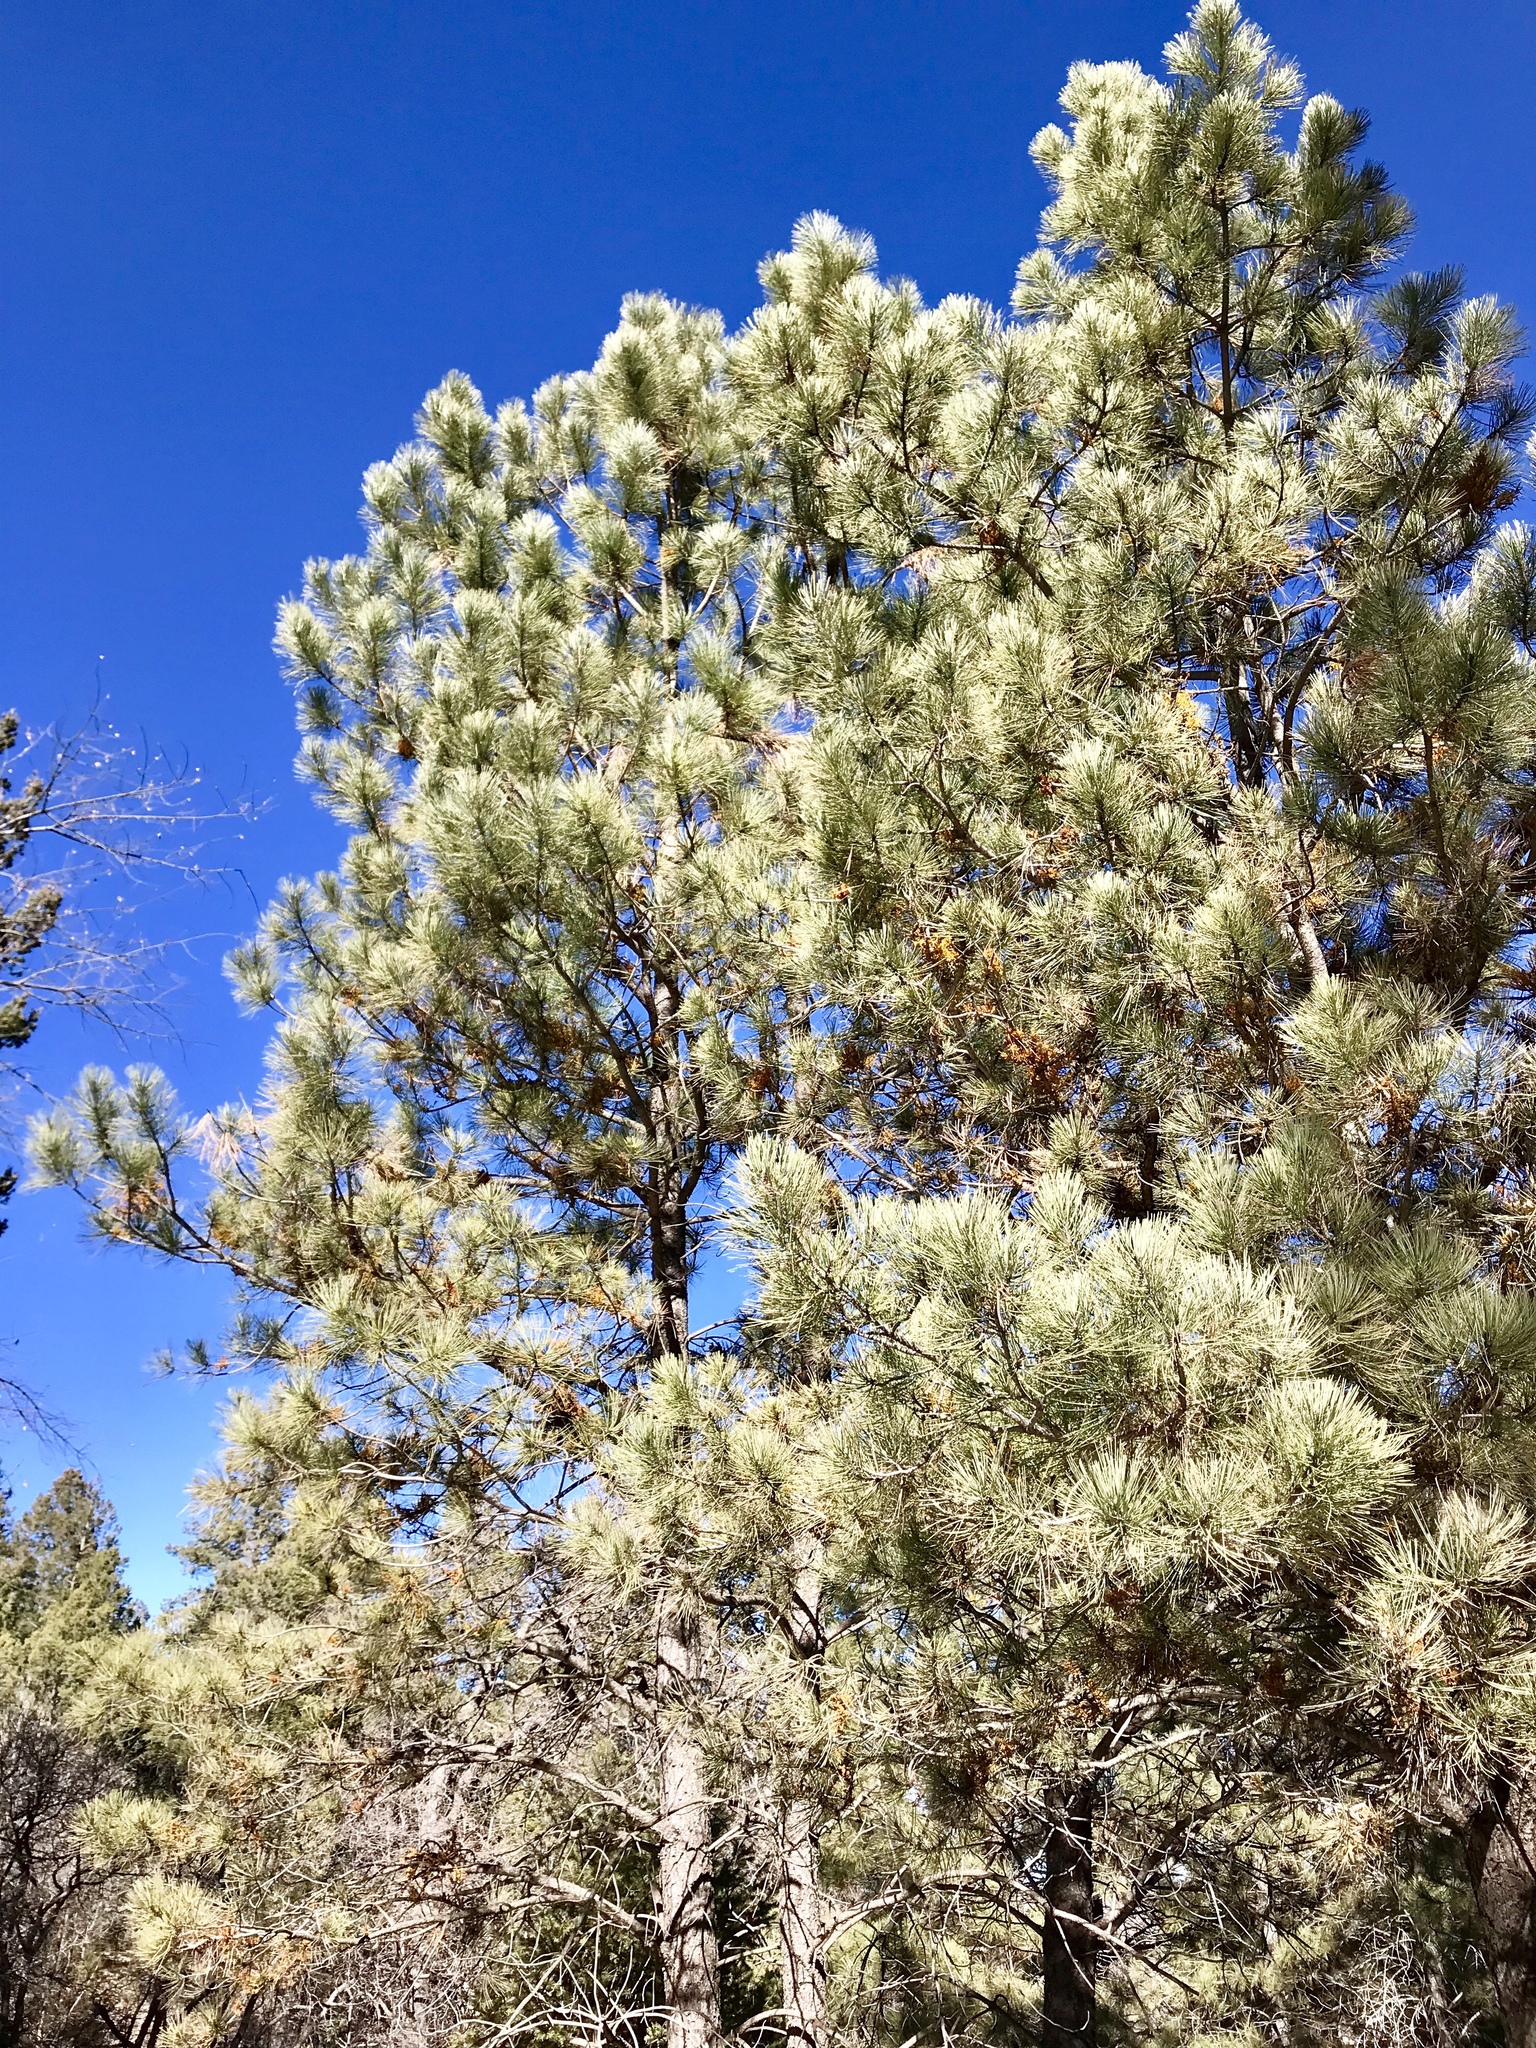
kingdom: Plantae
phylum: Tracheophyta
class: Pinopsida
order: Pinales
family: Pinaceae
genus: Pinus
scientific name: Pinus ponderosa
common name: Western yellow-pine
